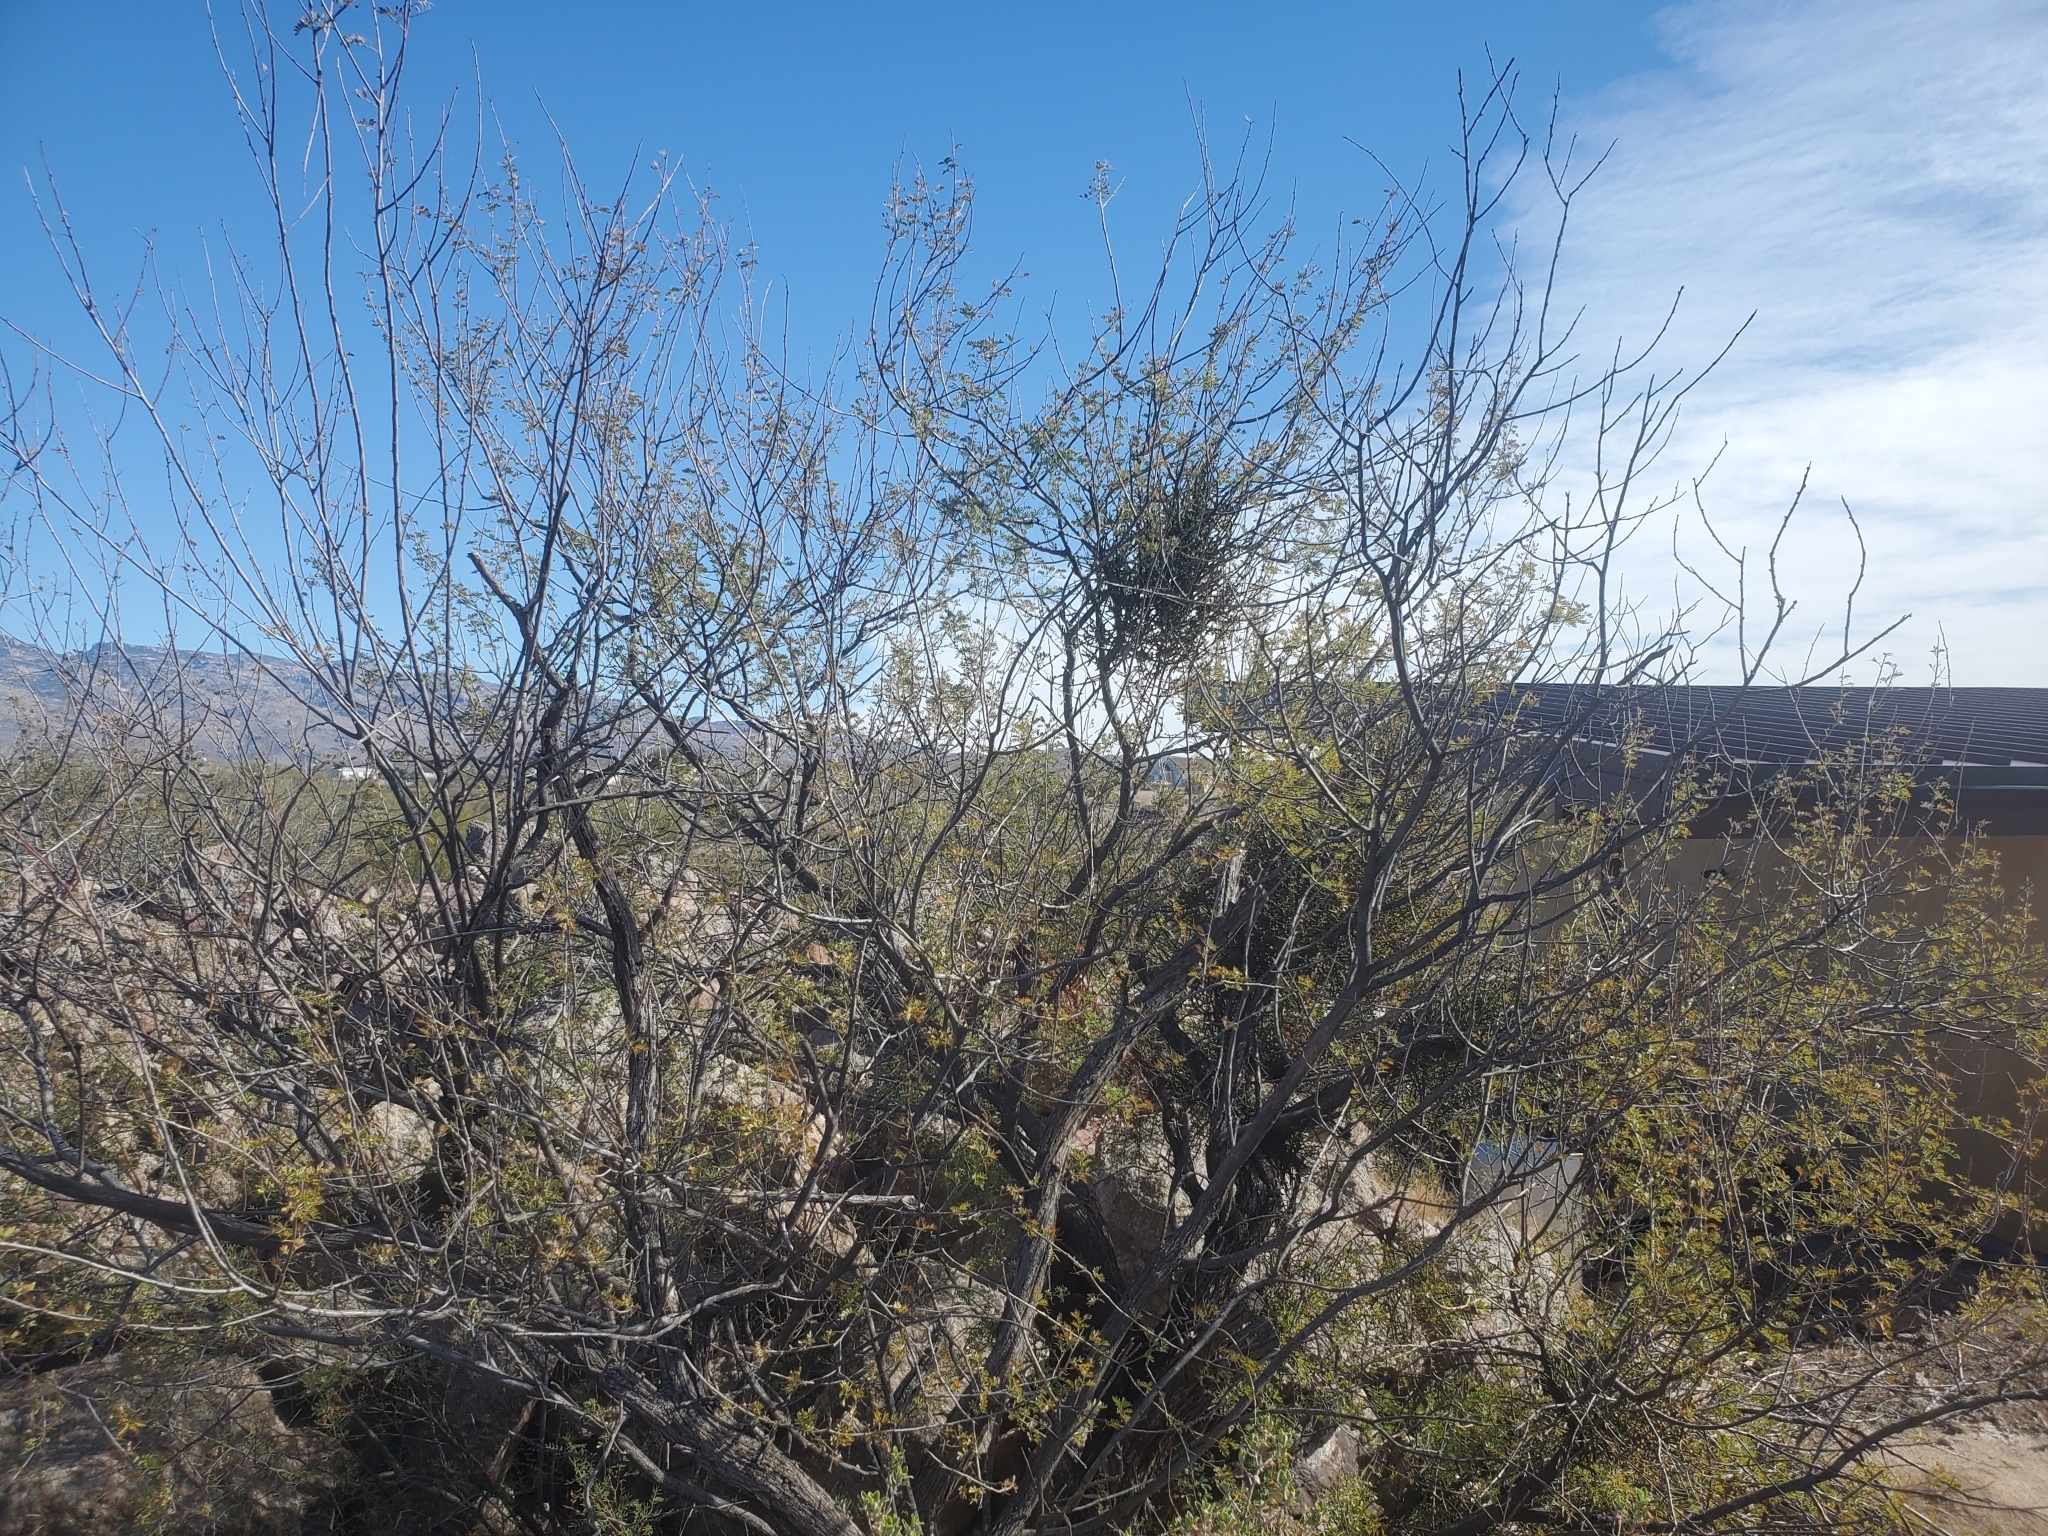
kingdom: Plantae
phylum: Tracheophyta
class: Magnoliopsida
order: Santalales
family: Viscaceae
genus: Phoradendron
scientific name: Phoradendron californicum
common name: Acacia mistletoe
